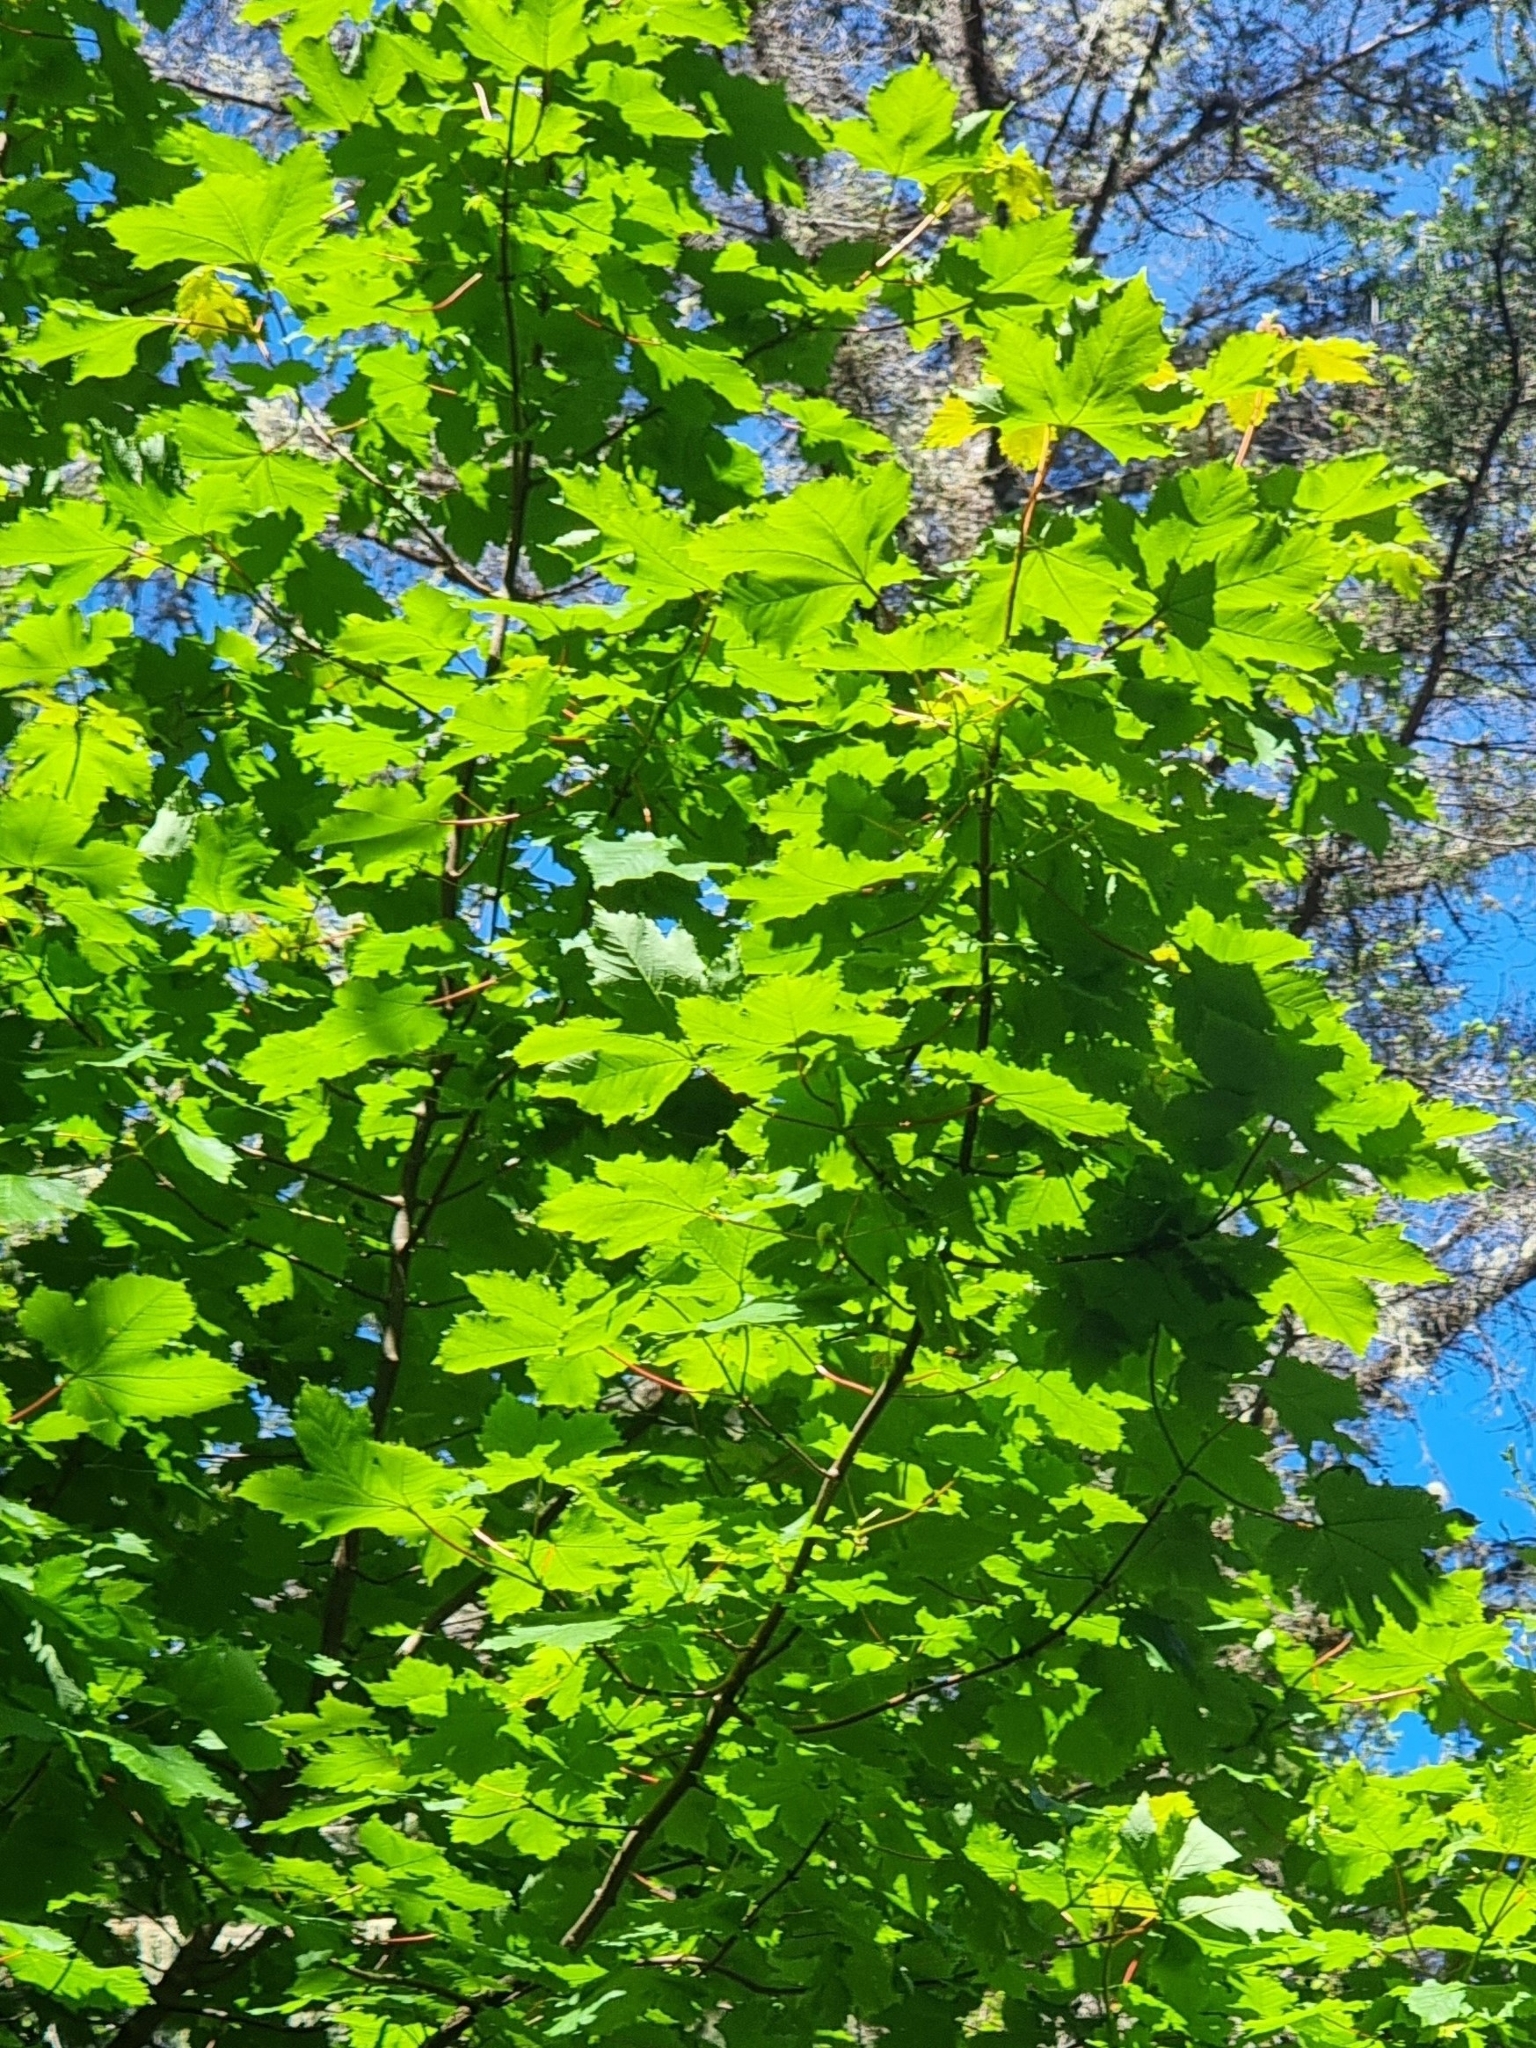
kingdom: Plantae
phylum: Tracheophyta
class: Magnoliopsida
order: Sapindales
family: Sapindaceae
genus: Acer
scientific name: Acer pseudoplatanus
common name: Sycamore
